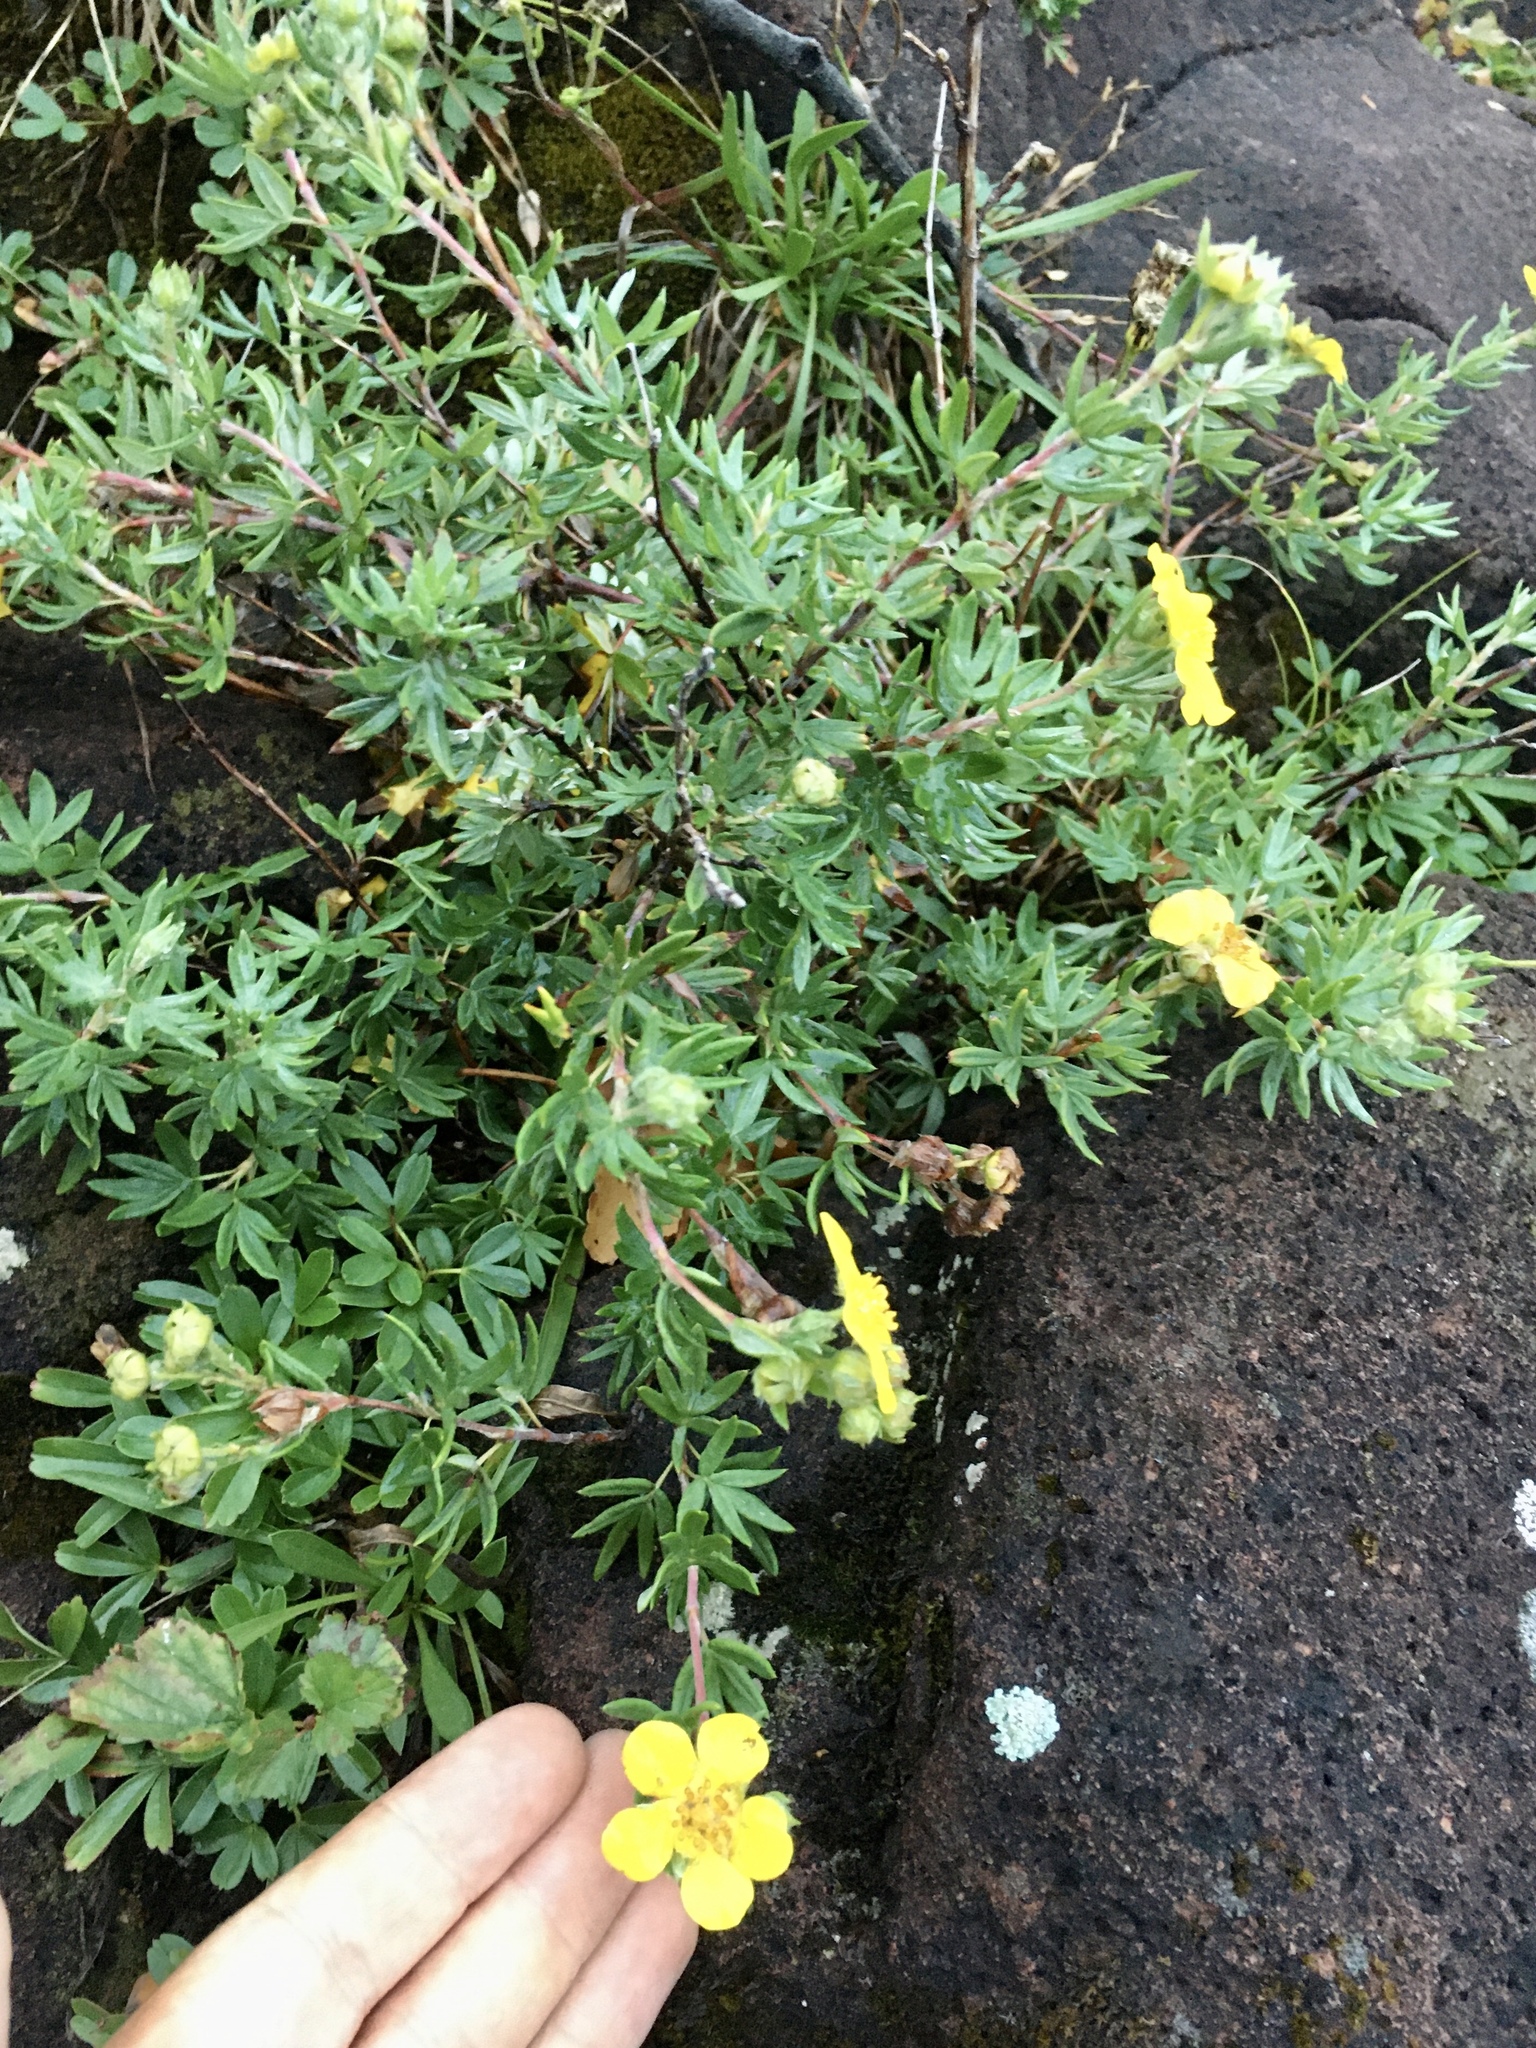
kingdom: Plantae
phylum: Tracheophyta
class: Magnoliopsida
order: Rosales
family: Rosaceae
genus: Dasiphora
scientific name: Dasiphora fruticosa
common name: Shrubby cinquefoil
